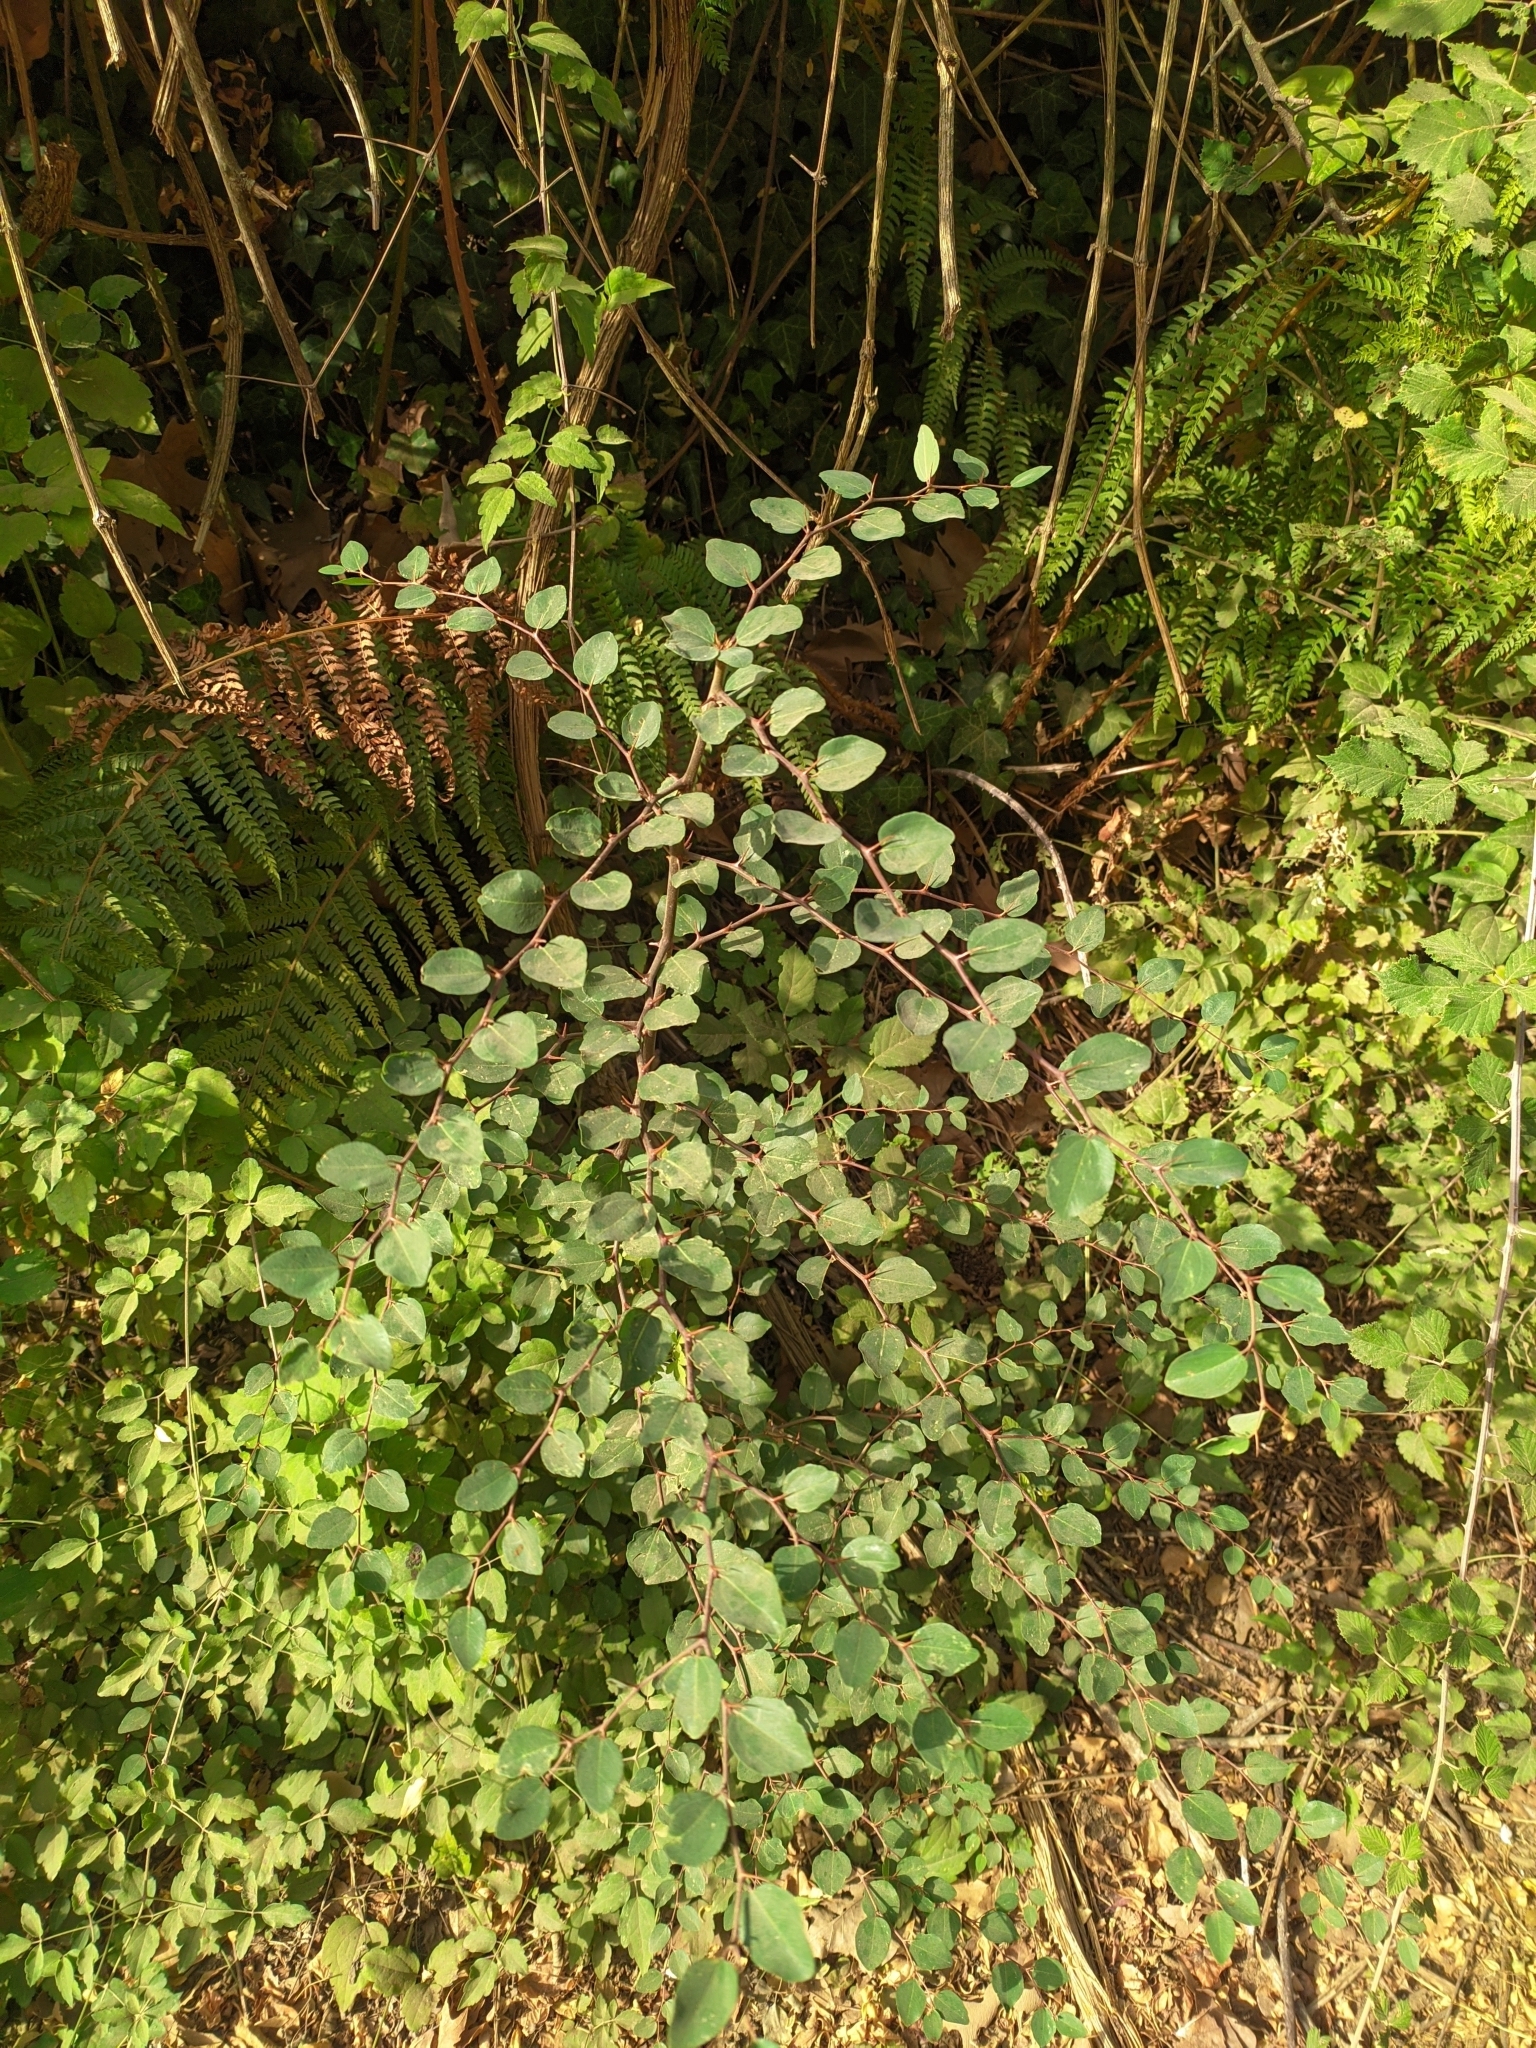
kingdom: Plantae
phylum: Tracheophyta
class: Magnoliopsida
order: Rosales
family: Rhamnaceae
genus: Paliurus
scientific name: Paliurus spina-christi
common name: Jeruselem thorn
